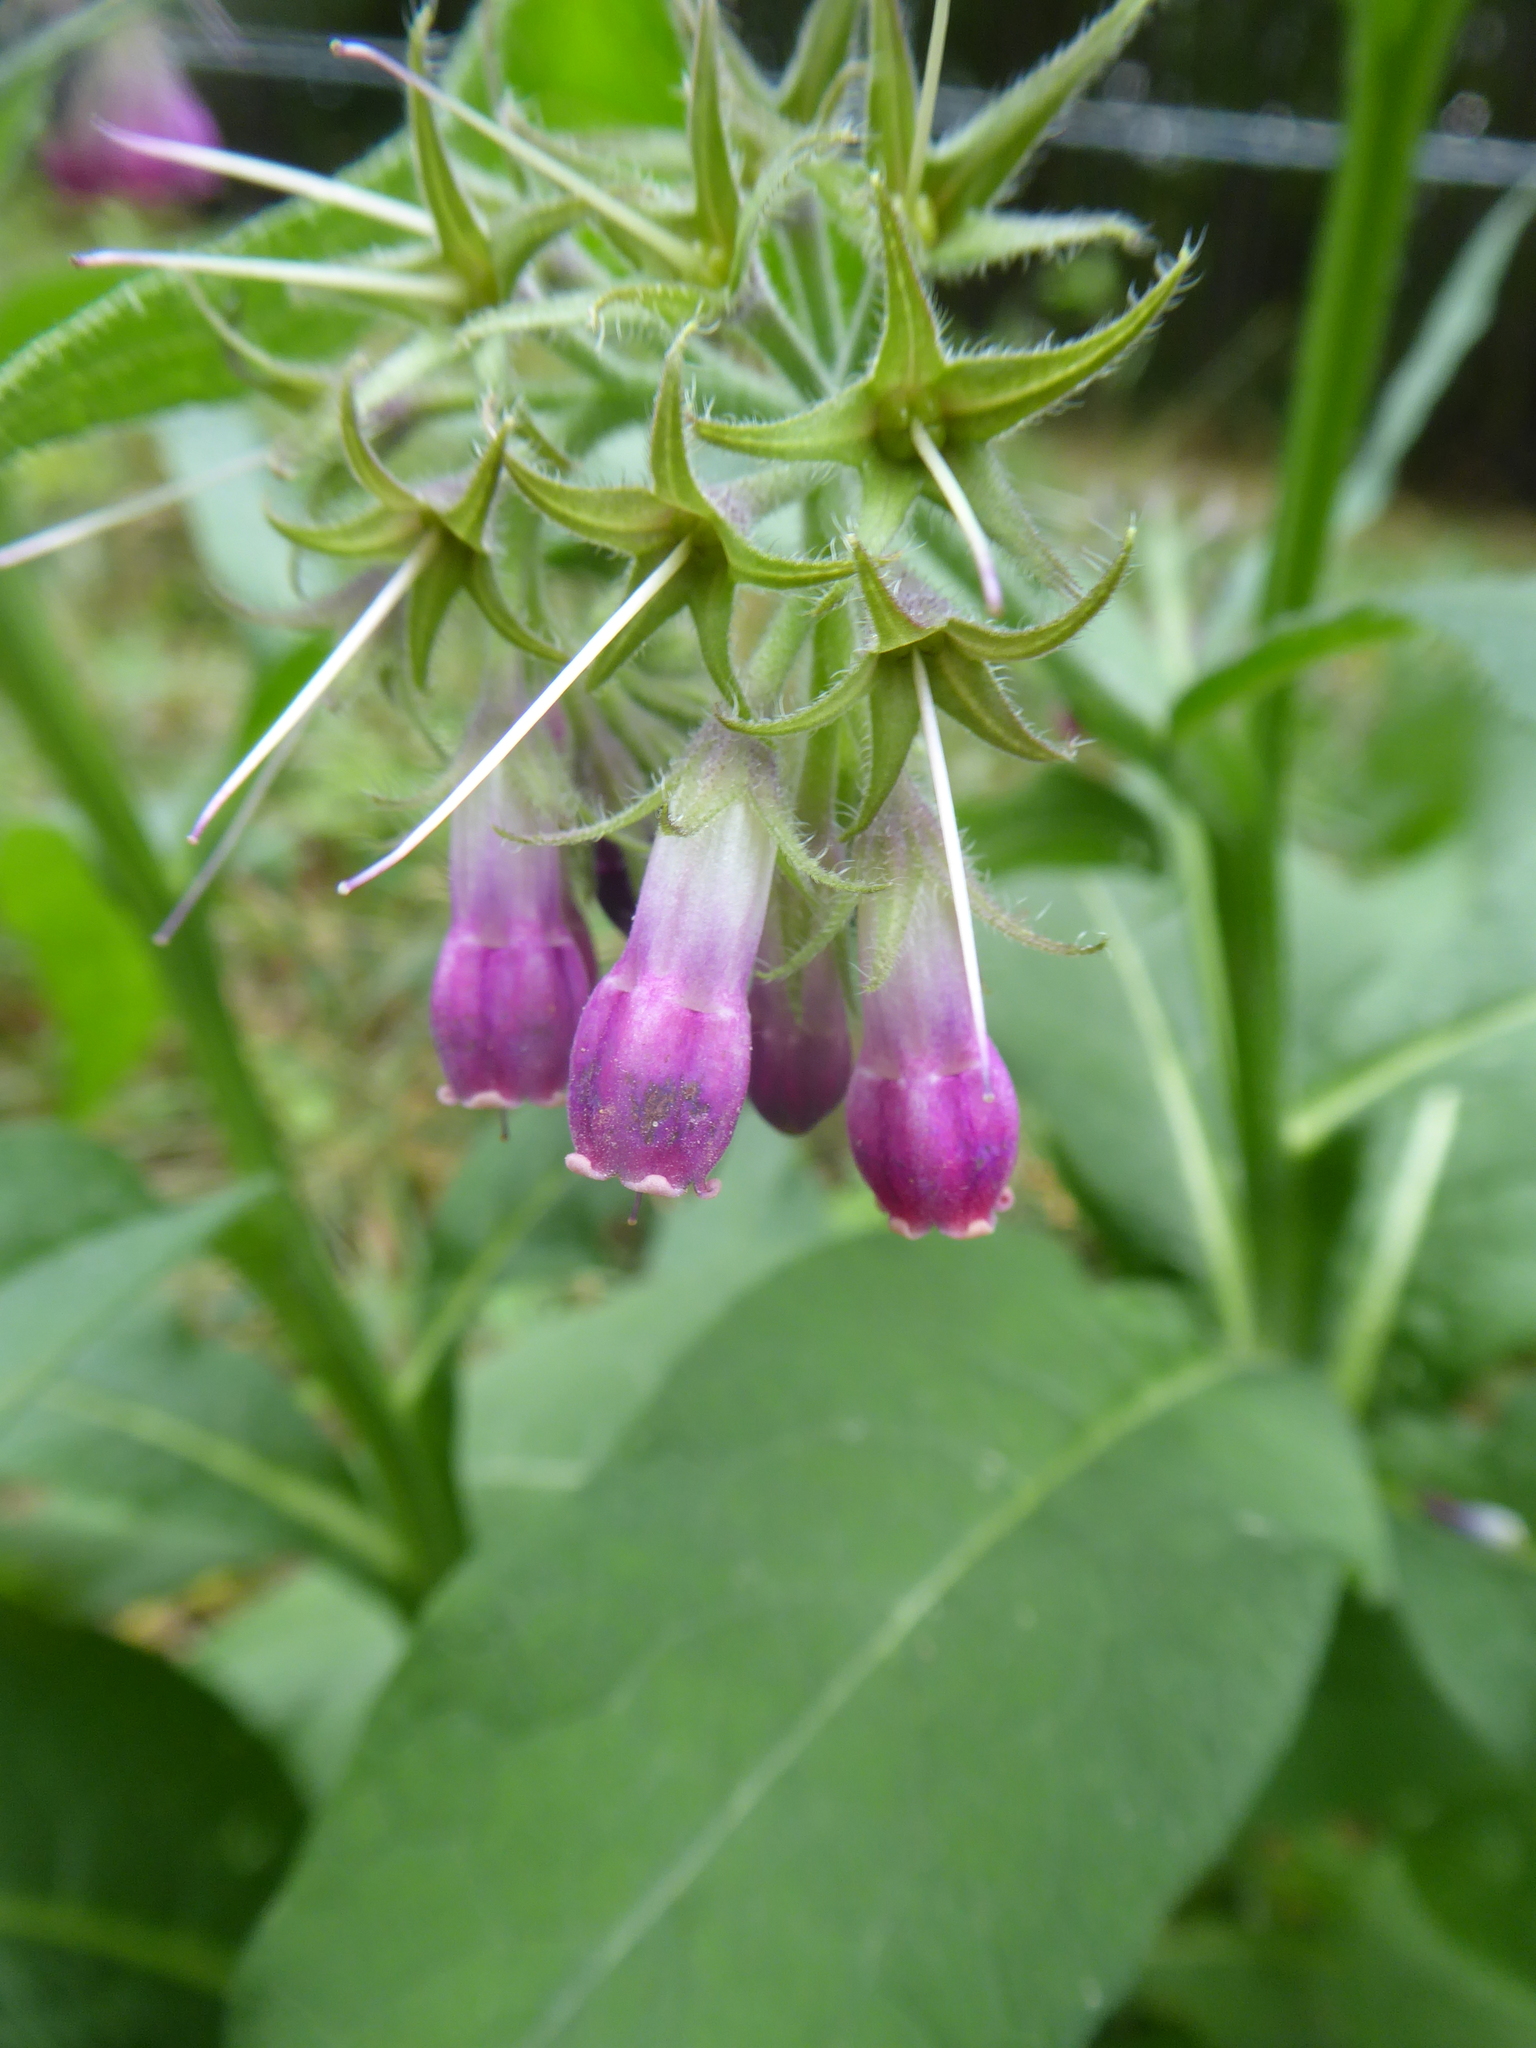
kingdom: Plantae
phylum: Tracheophyta
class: Magnoliopsida
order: Boraginales
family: Boraginaceae
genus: Symphytum
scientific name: Symphytum officinale
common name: Common comfrey
